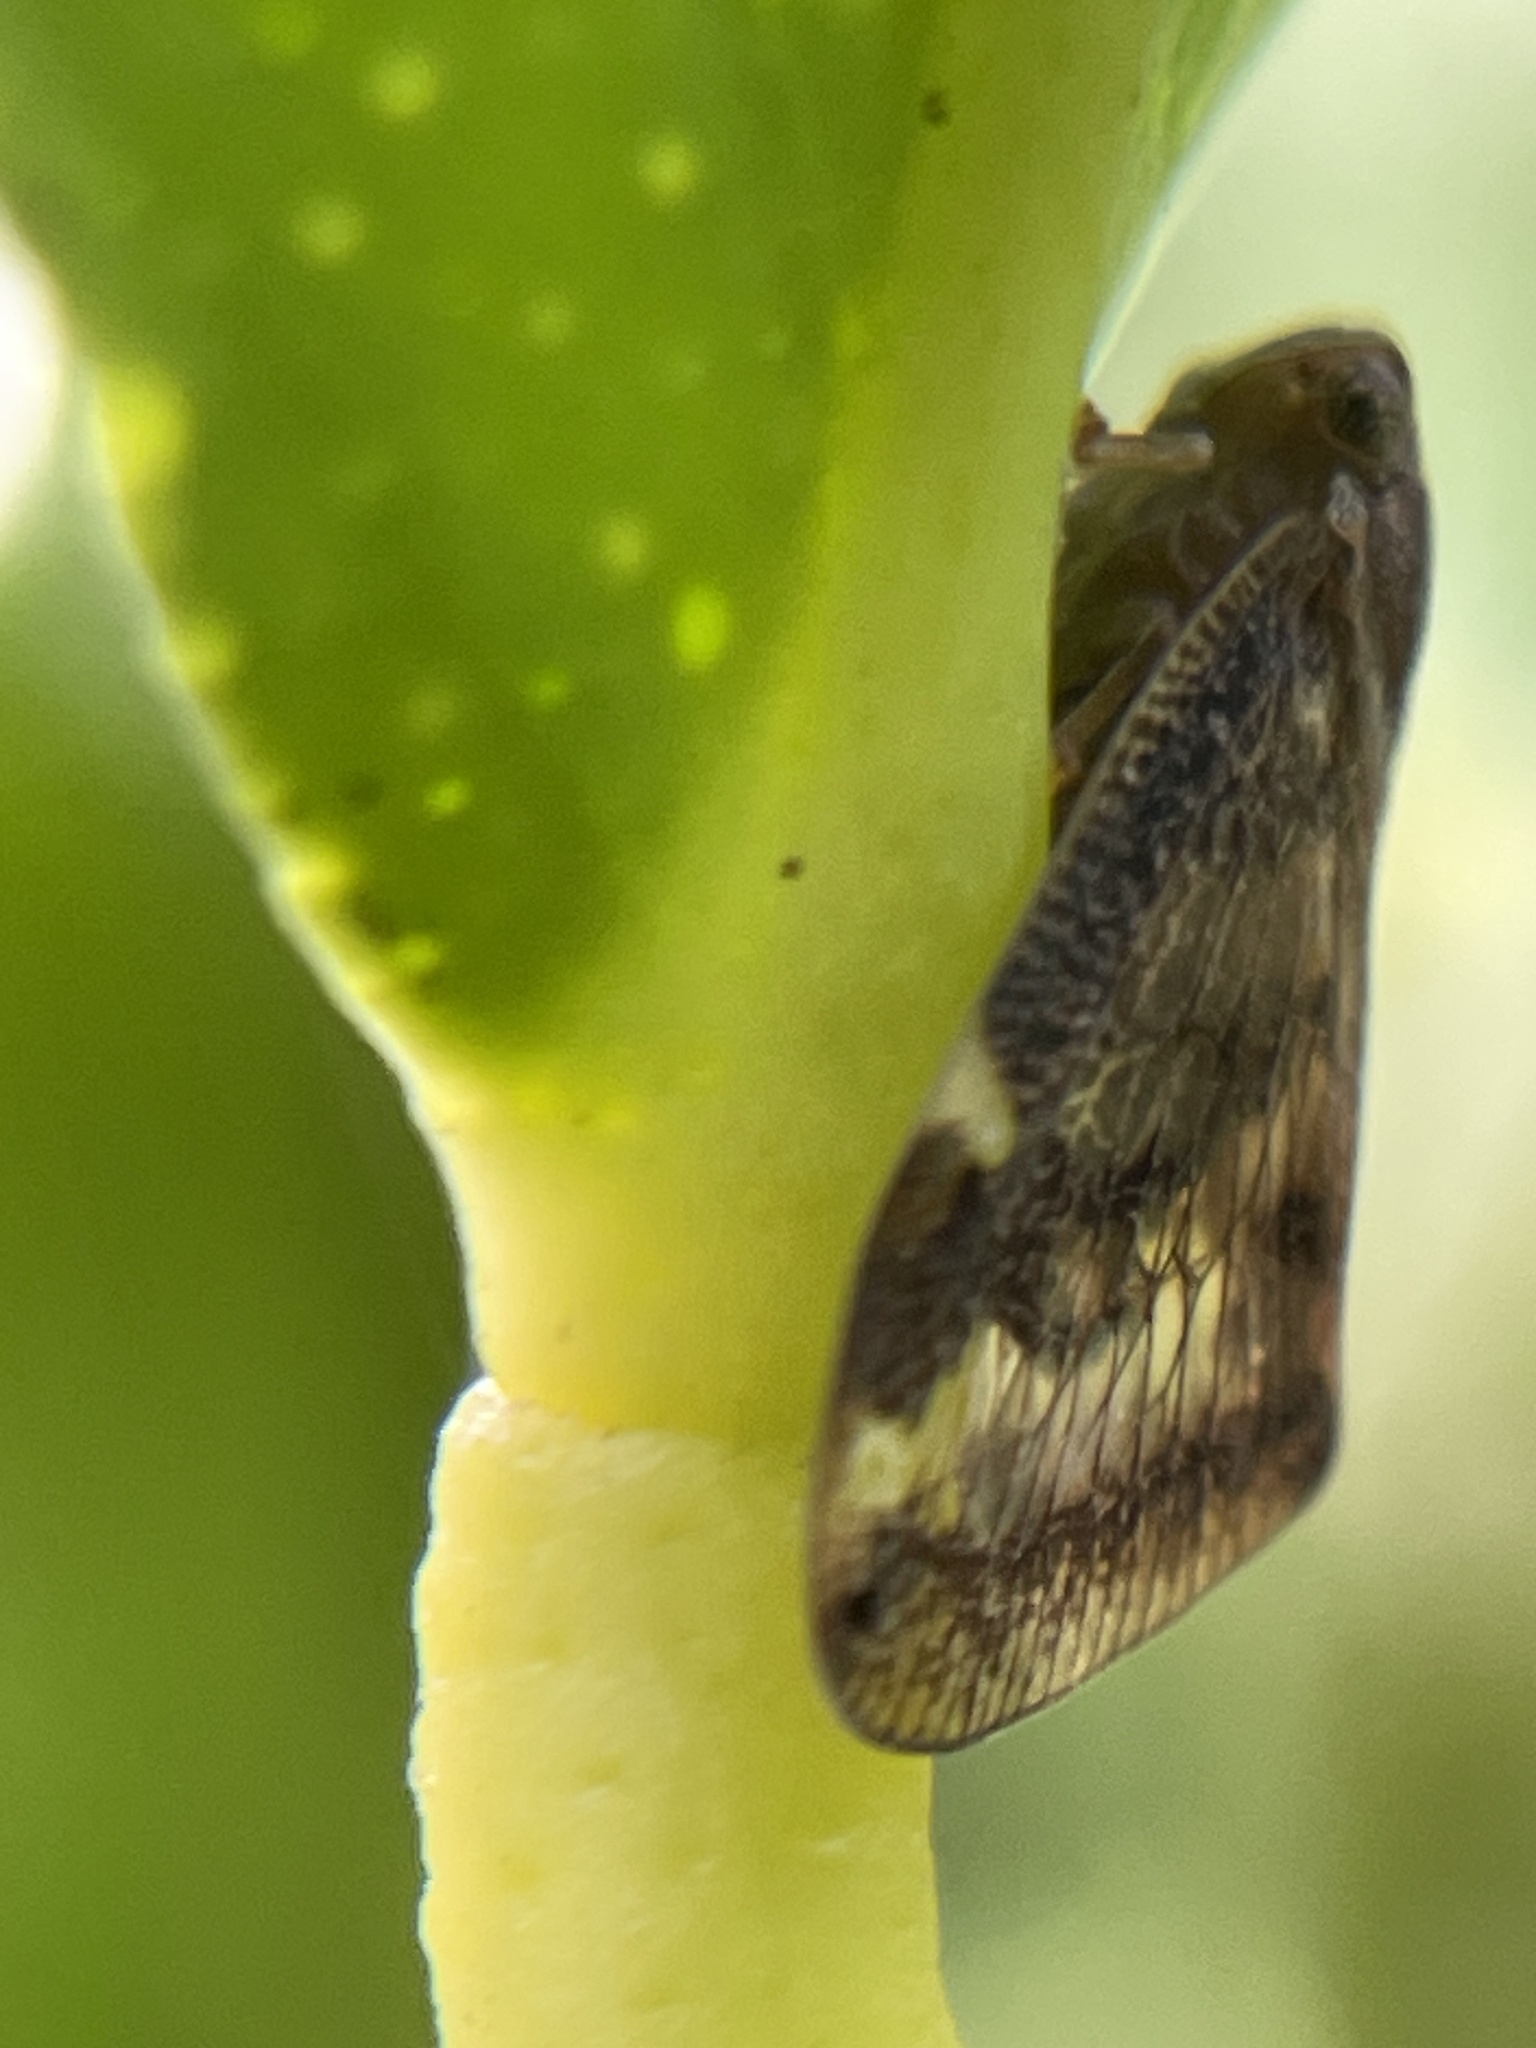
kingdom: Animalia
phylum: Arthropoda
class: Insecta
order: Hemiptera
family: Ricaniidae
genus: Scolypopa
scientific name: Scolypopa australis
